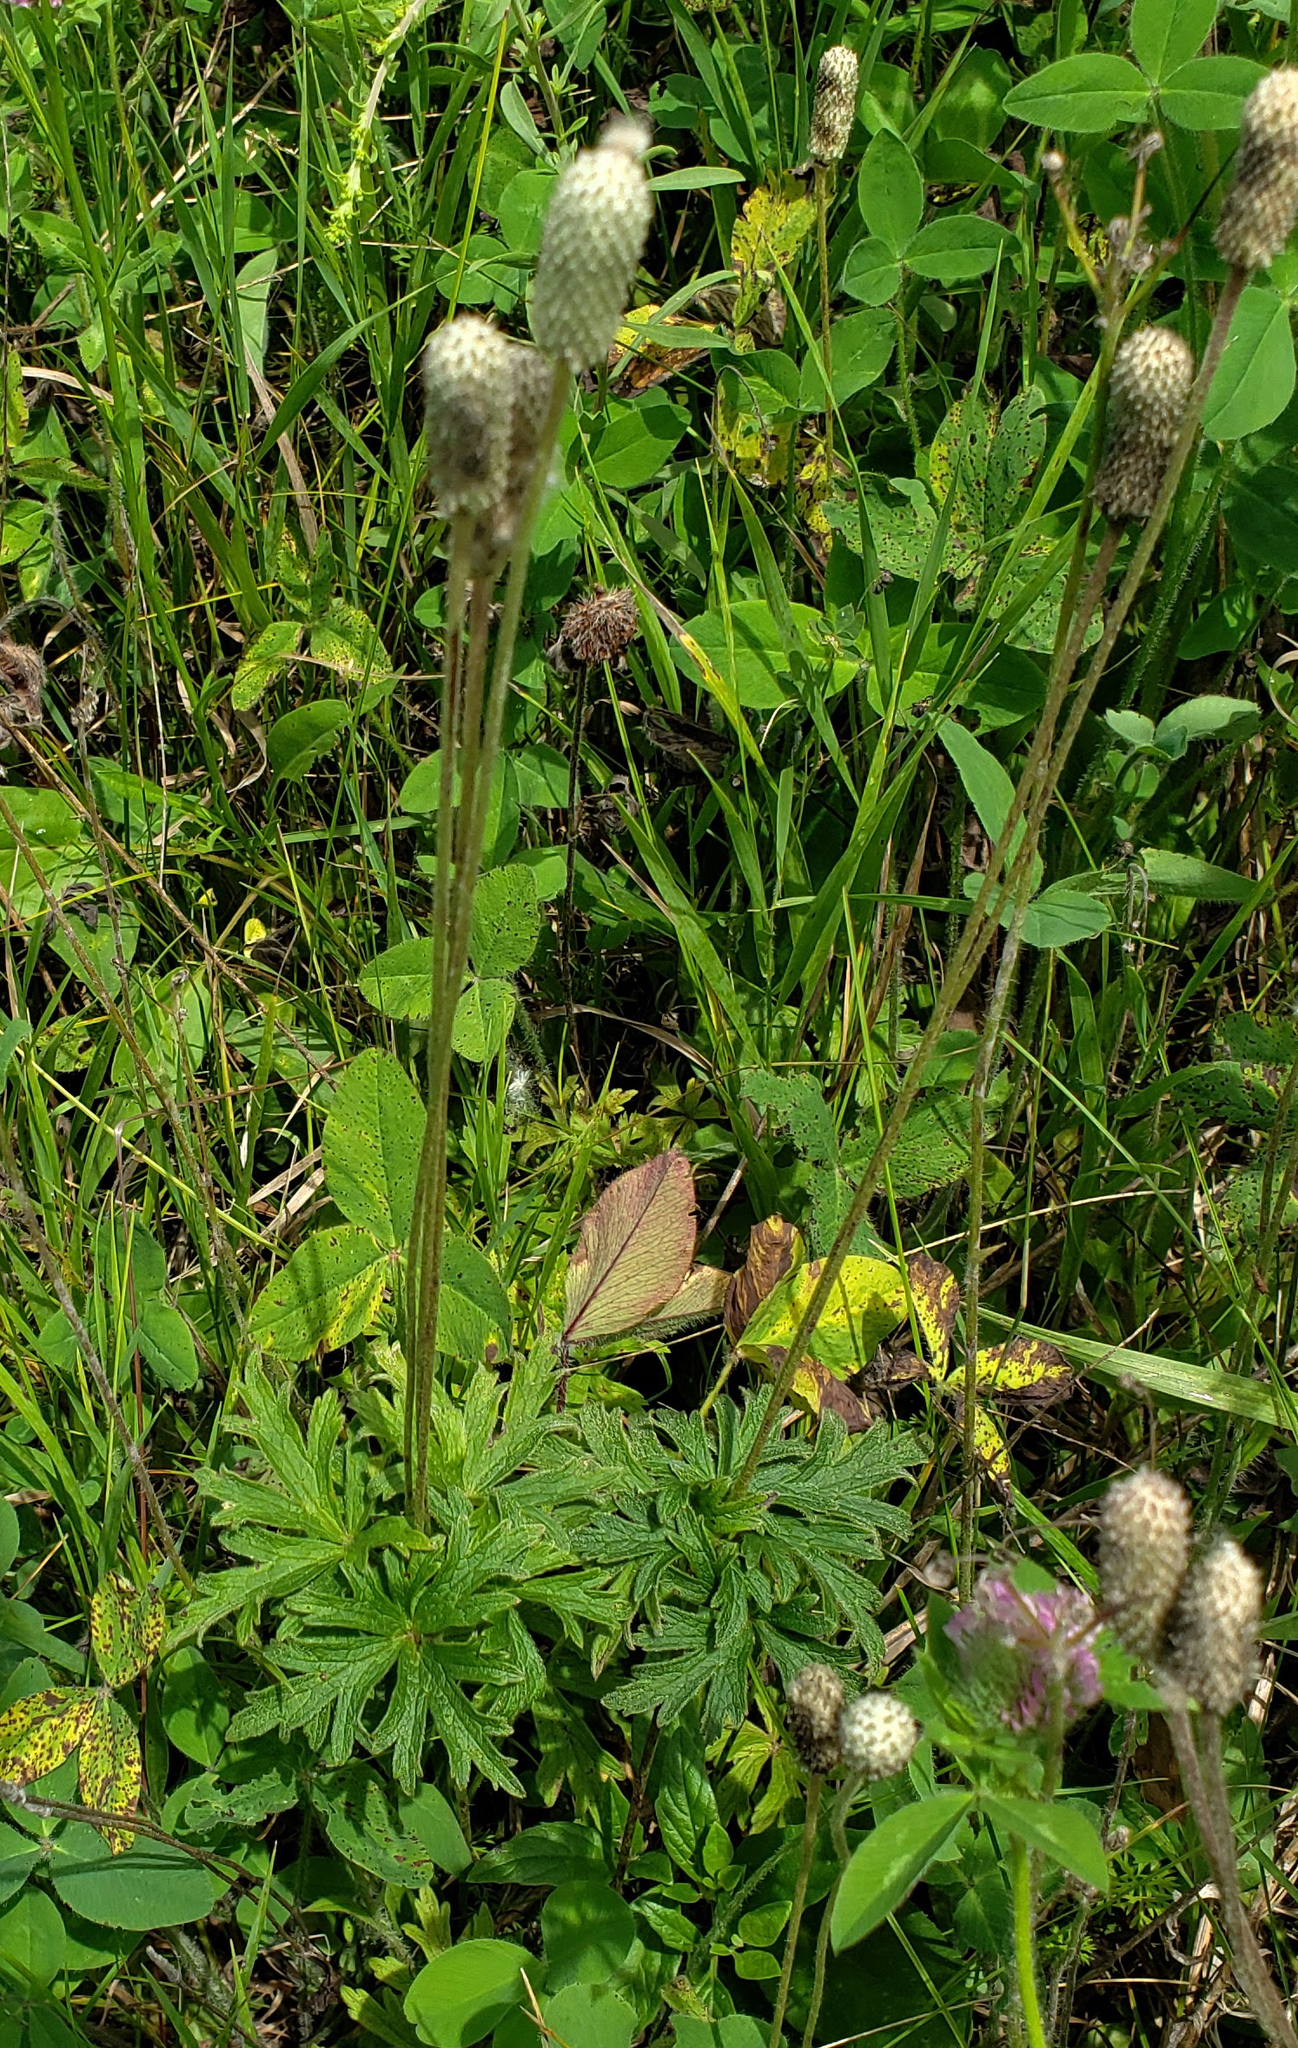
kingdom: Plantae
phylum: Tracheophyta
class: Magnoliopsida
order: Ranunculales
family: Ranunculaceae
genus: Anemone
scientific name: Anemone cylindrica
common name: Candle anemone
